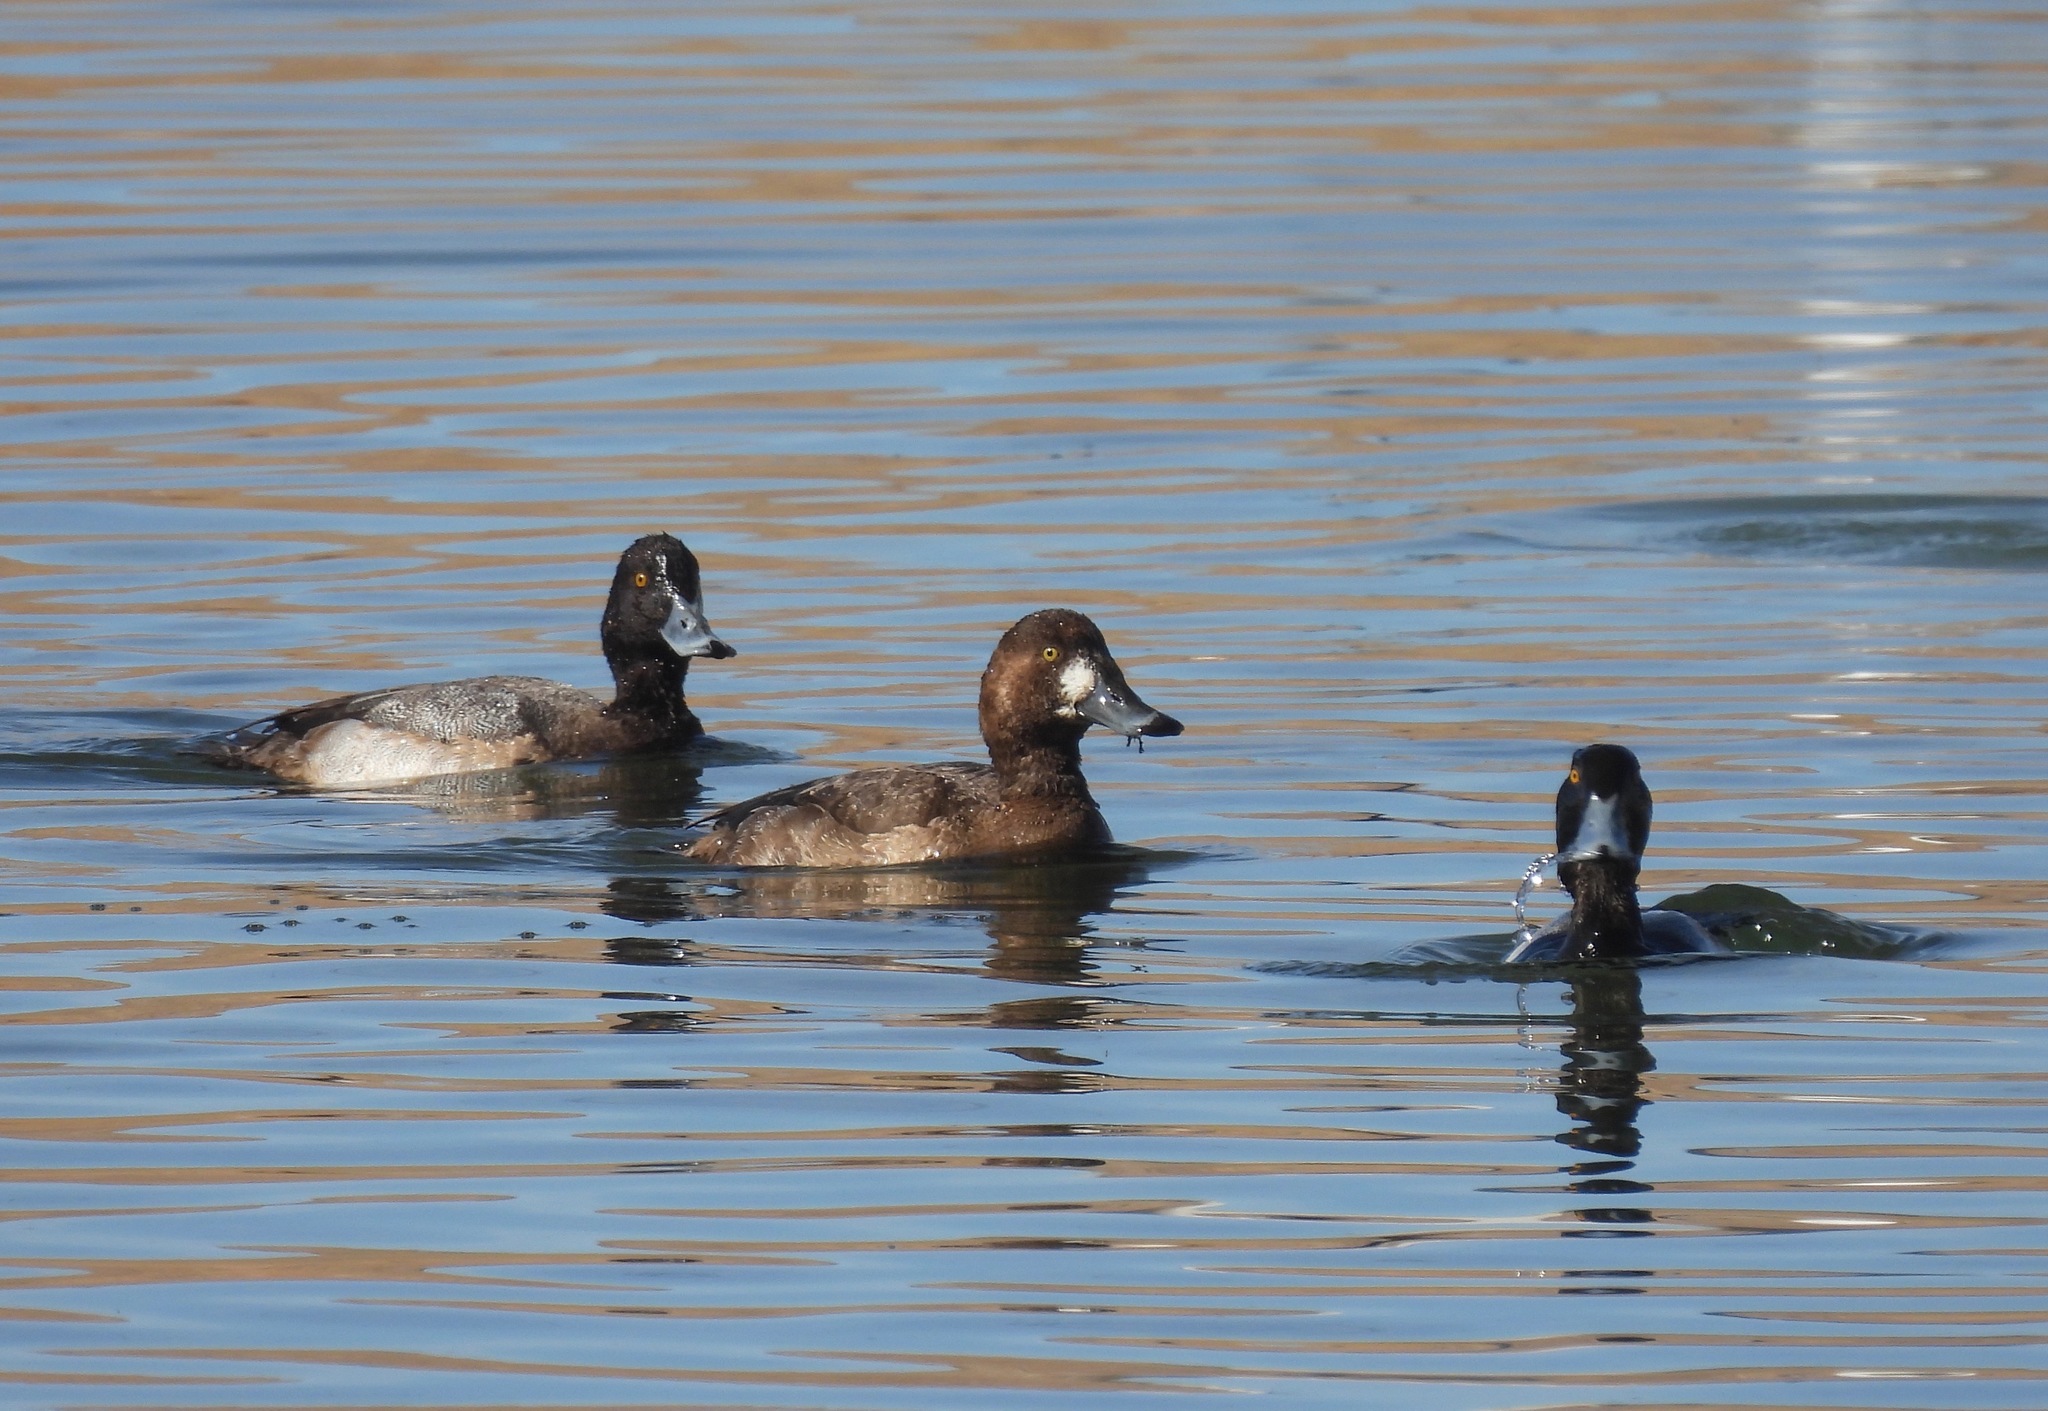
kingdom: Animalia
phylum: Chordata
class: Aves
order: Anseriformes
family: Anatidae
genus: Aythya
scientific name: Aythya marila
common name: Greater scaup
